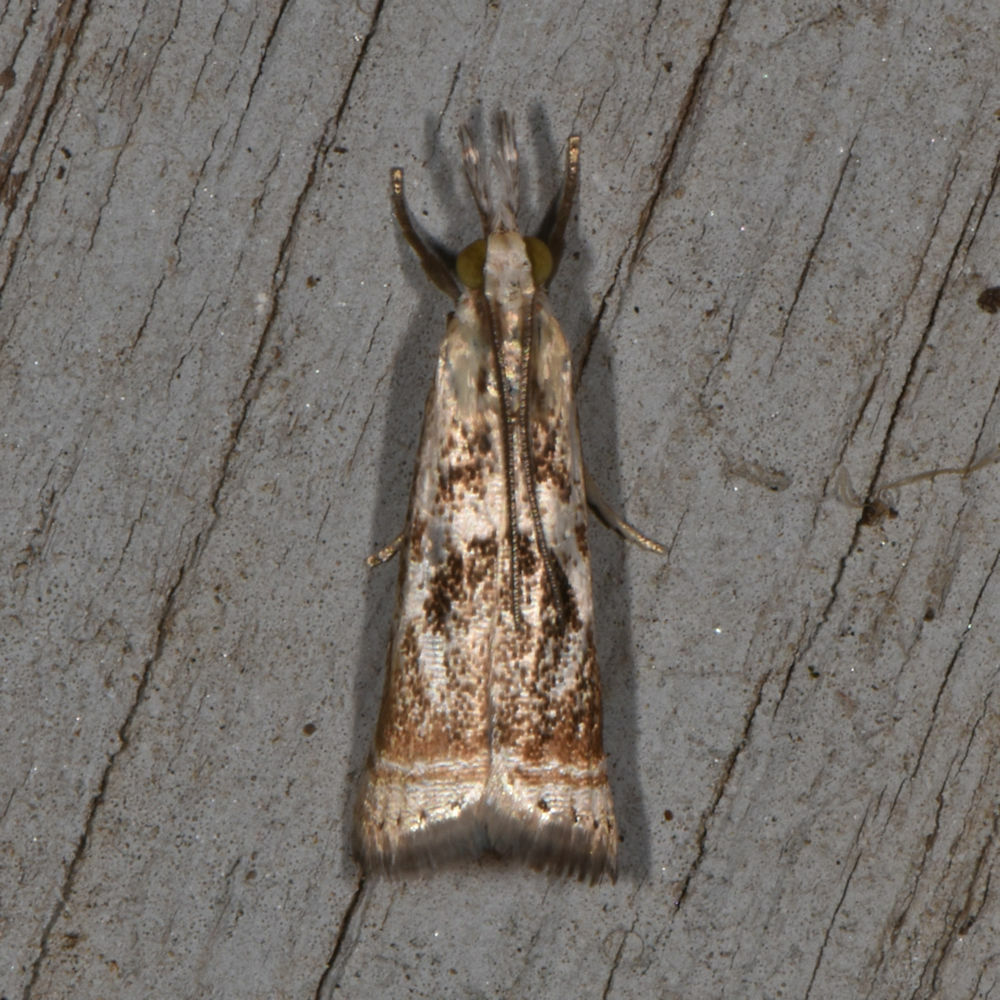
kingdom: Animalia
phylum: Arthropoda
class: Insecta
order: Lepidoptera
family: Crambidae
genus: Microcrambus
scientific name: Microcrambus elegans
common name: Elegant grass-veneer
